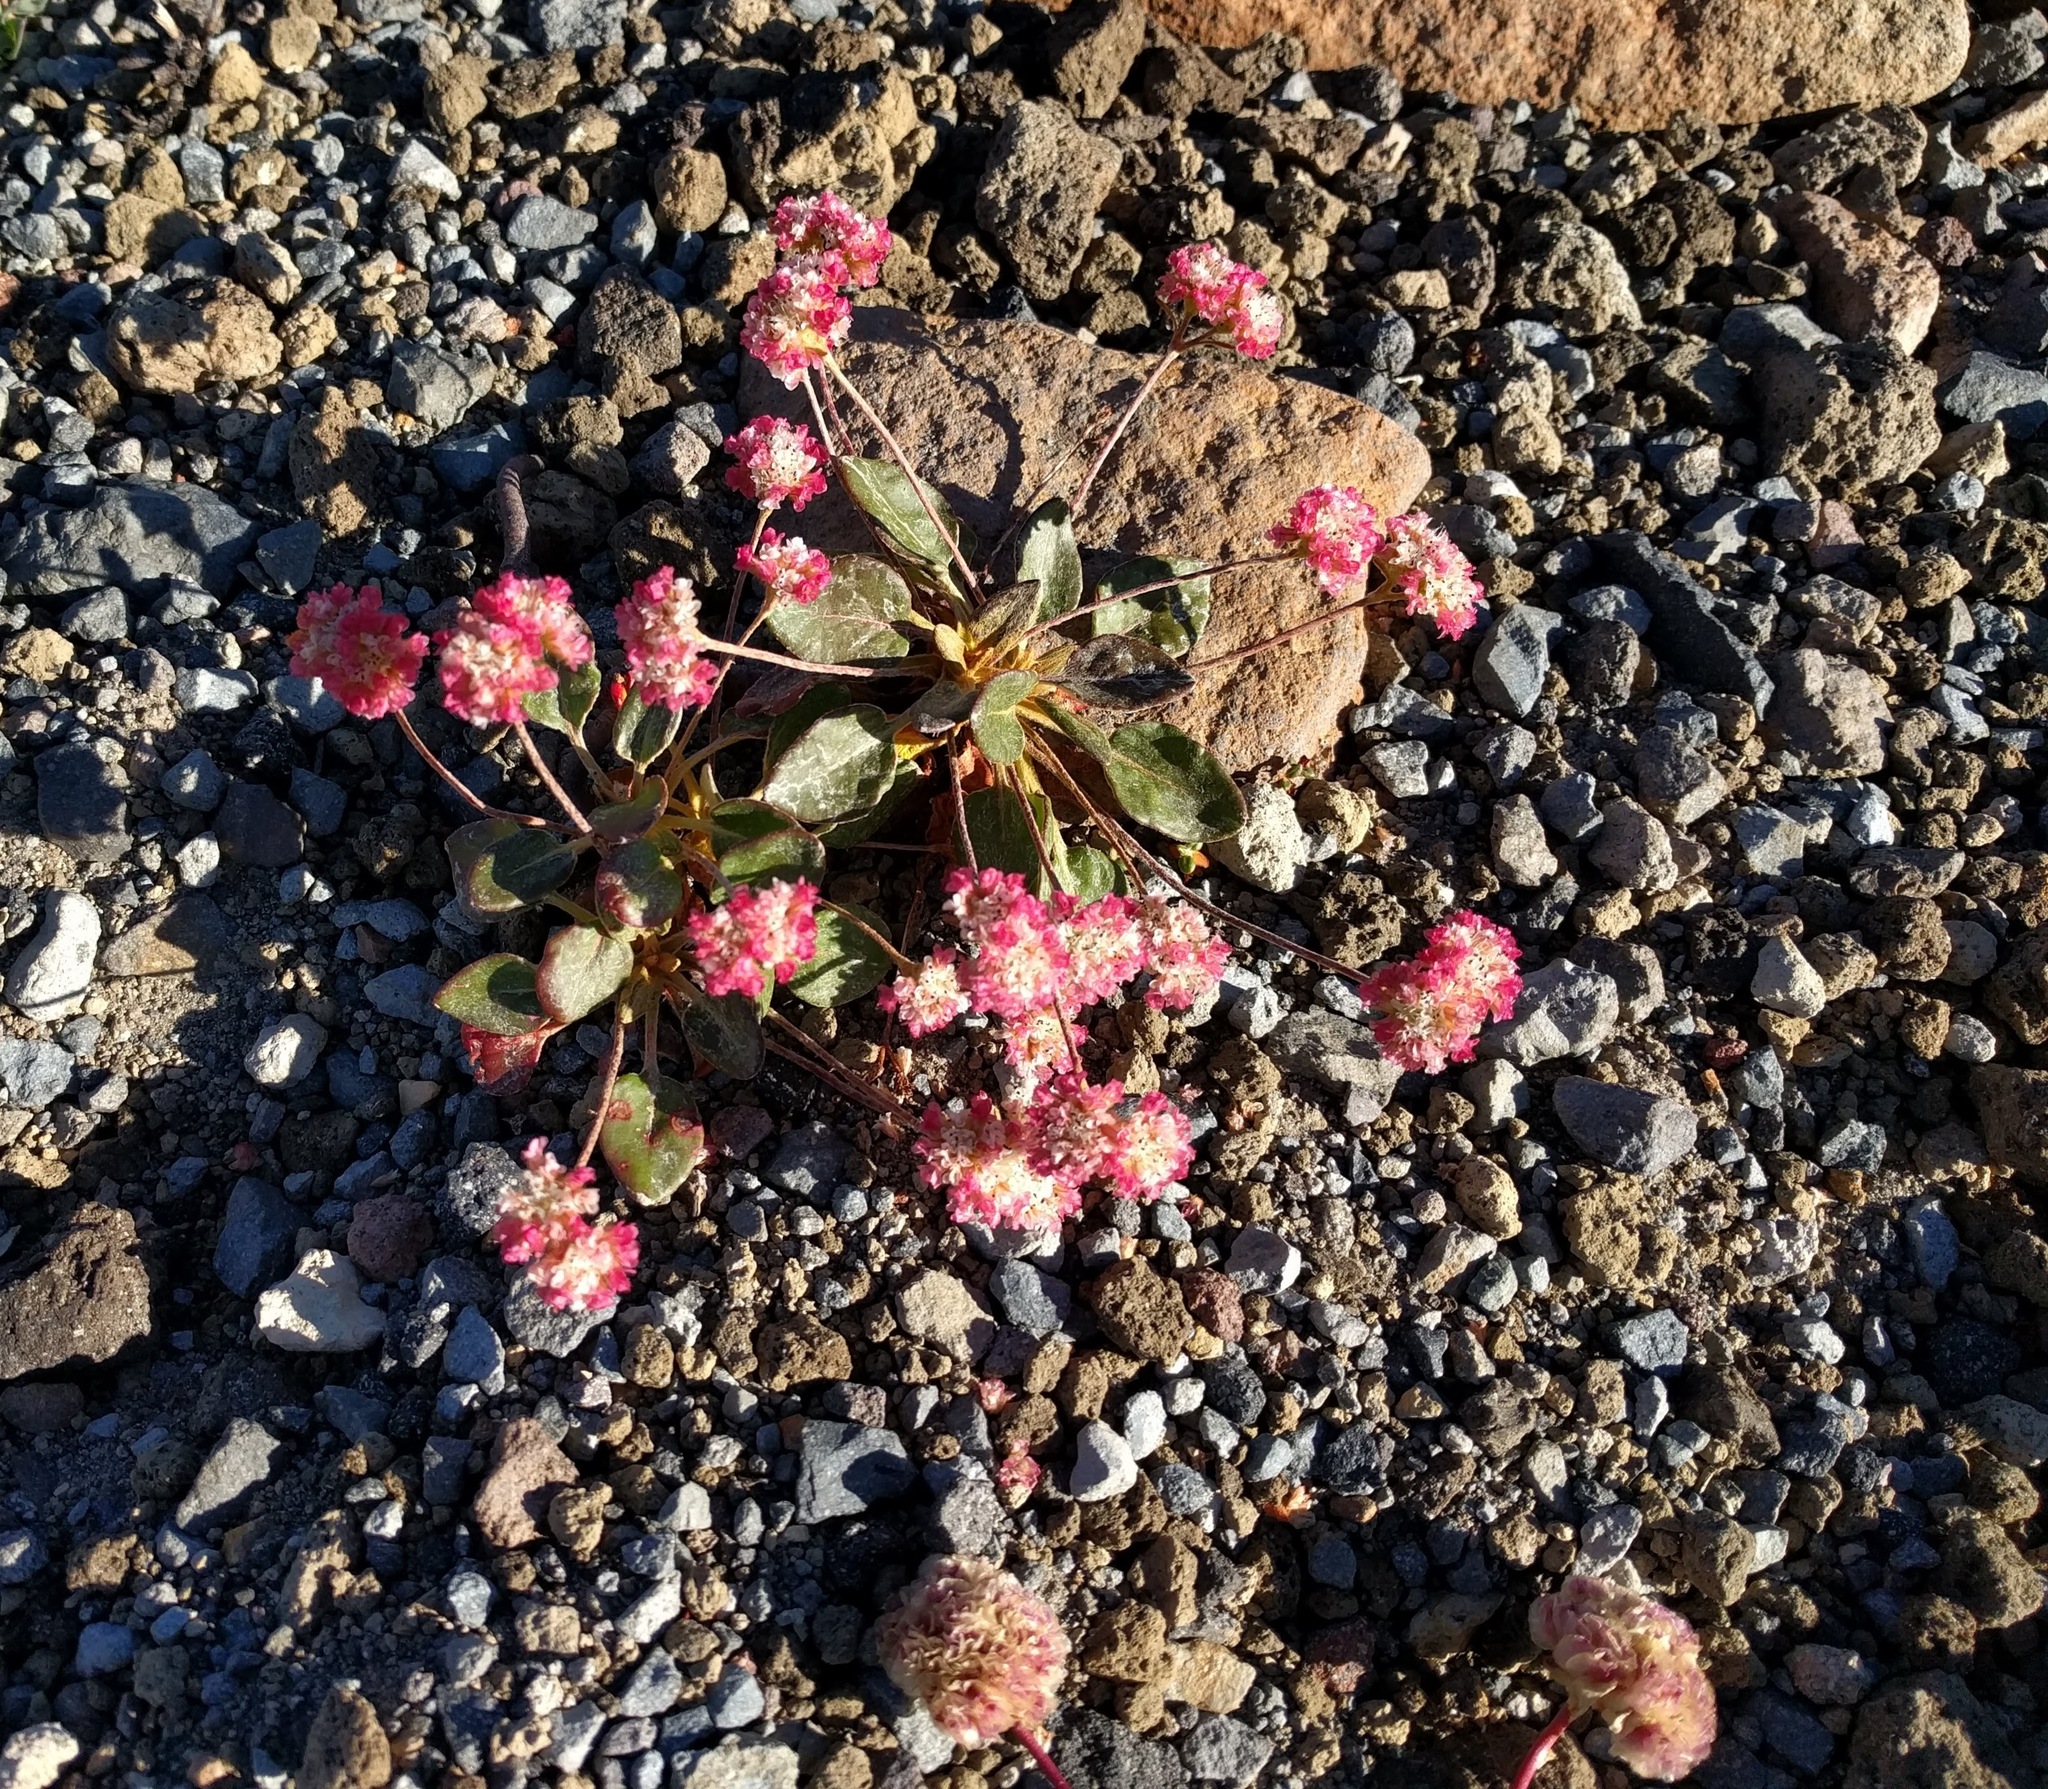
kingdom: Plantae
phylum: Tracheophyta
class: Magnoliopsida
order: Caryophyllales
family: Polygonaceae
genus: Eriogonum
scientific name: Eriogonum pyrolifolium
